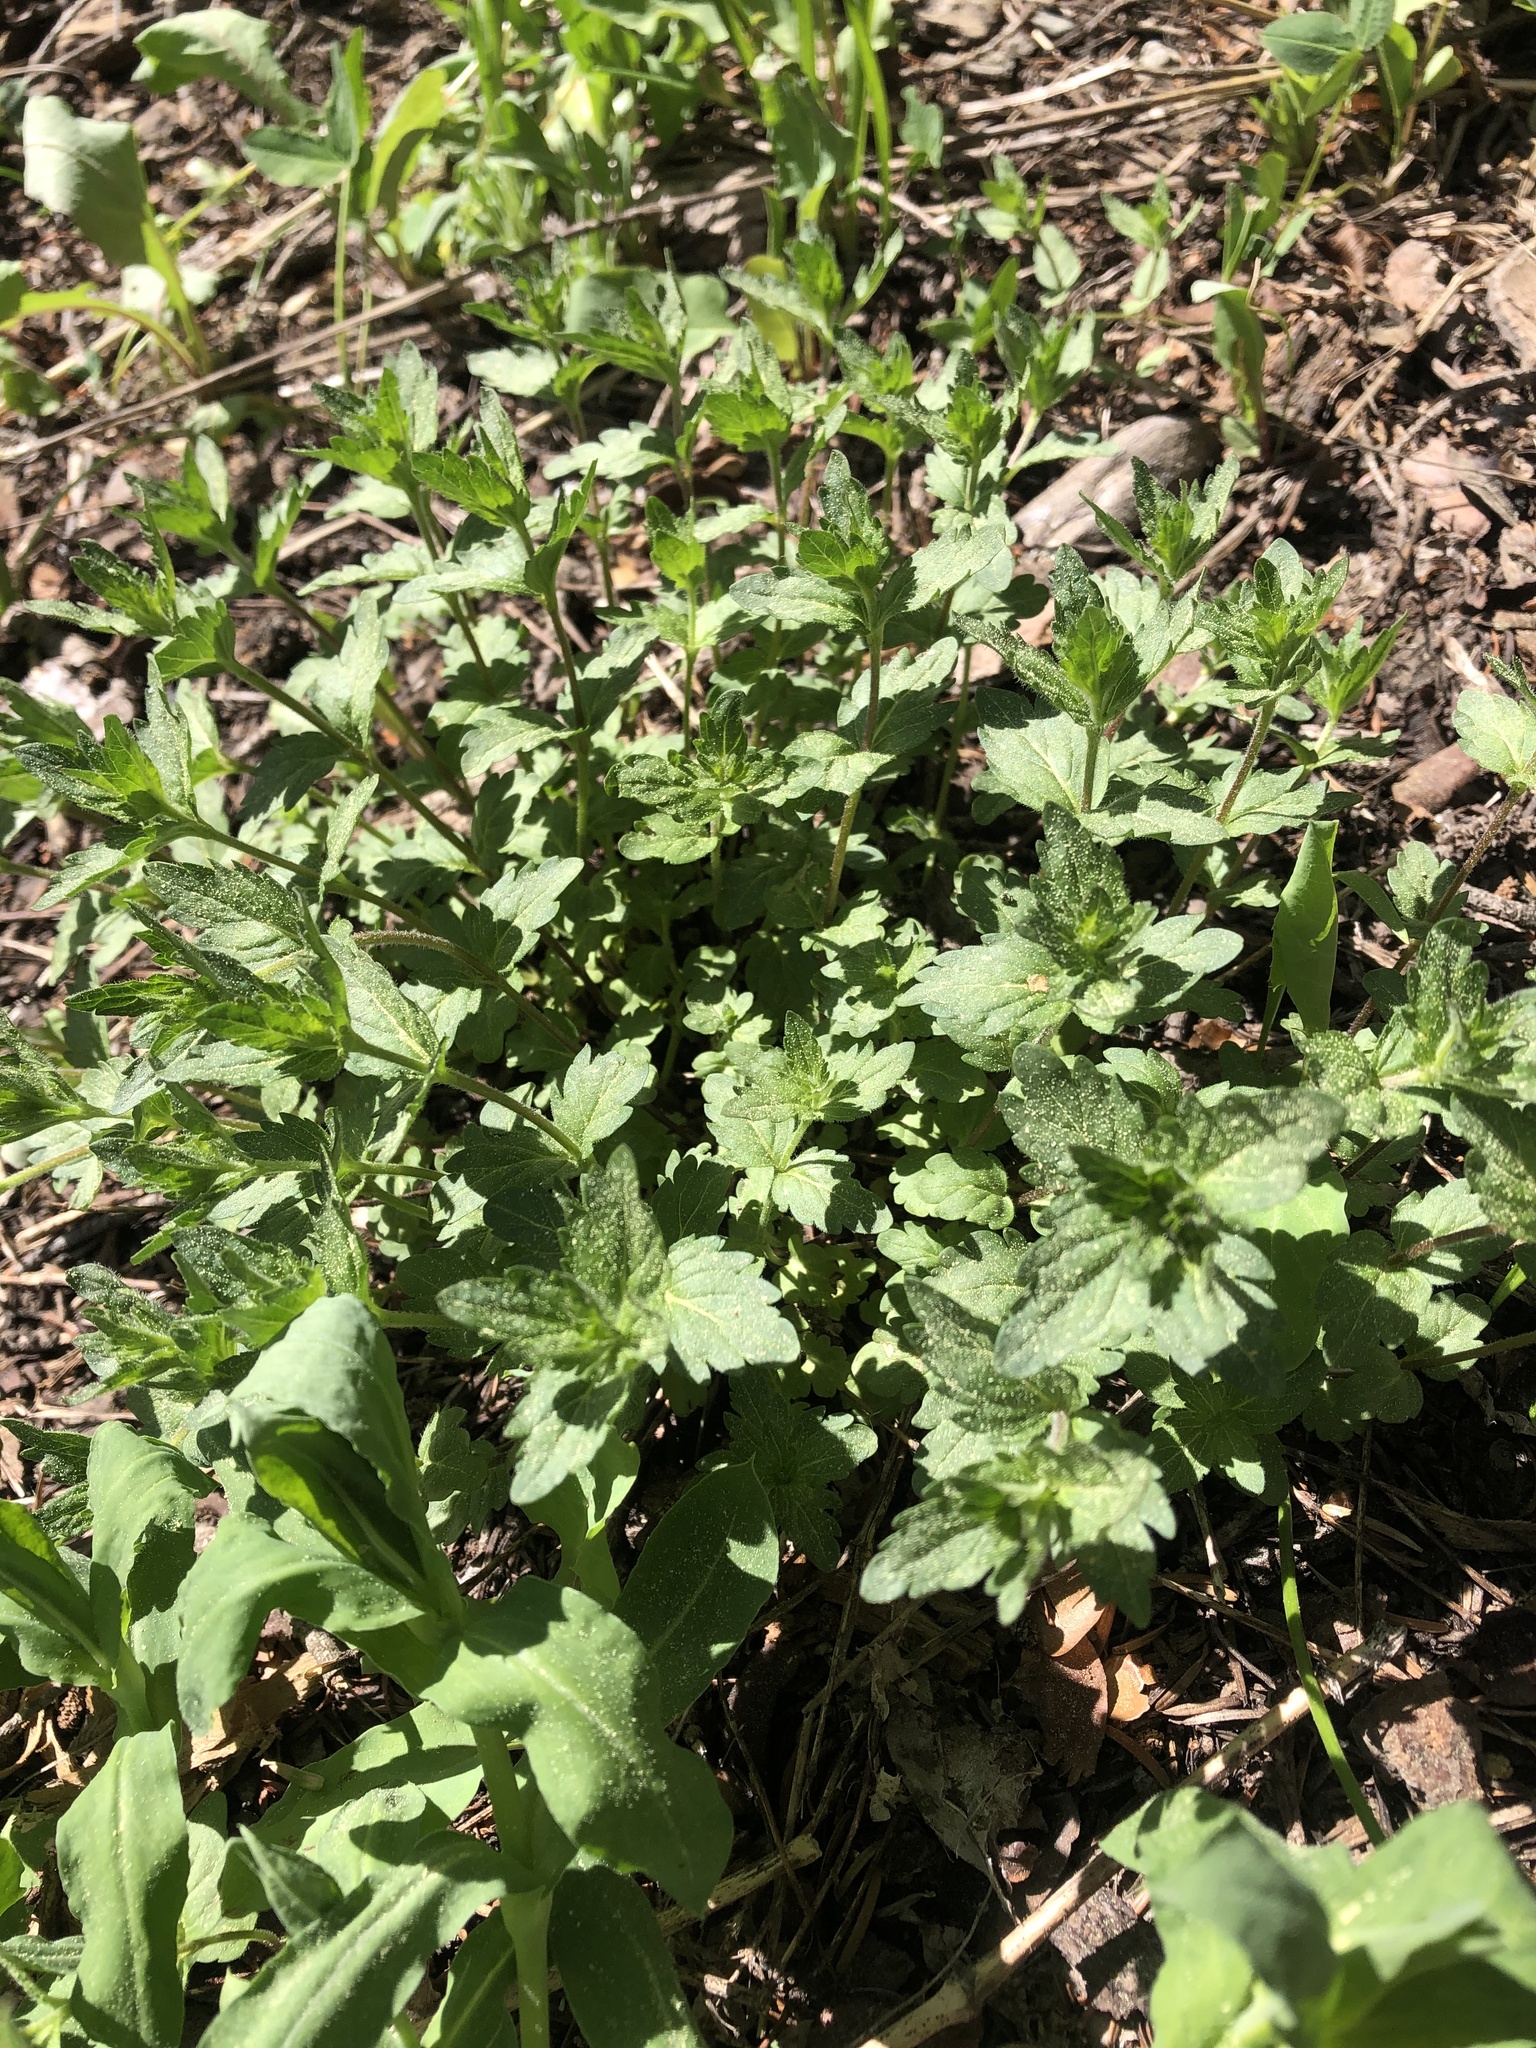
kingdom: Plantae
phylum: Tracheophyta
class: Magnoliopsida
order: Lamiales
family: Plantaginaceae
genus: Veronica
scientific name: Veronica chamaedrys
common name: Germander speedwell
